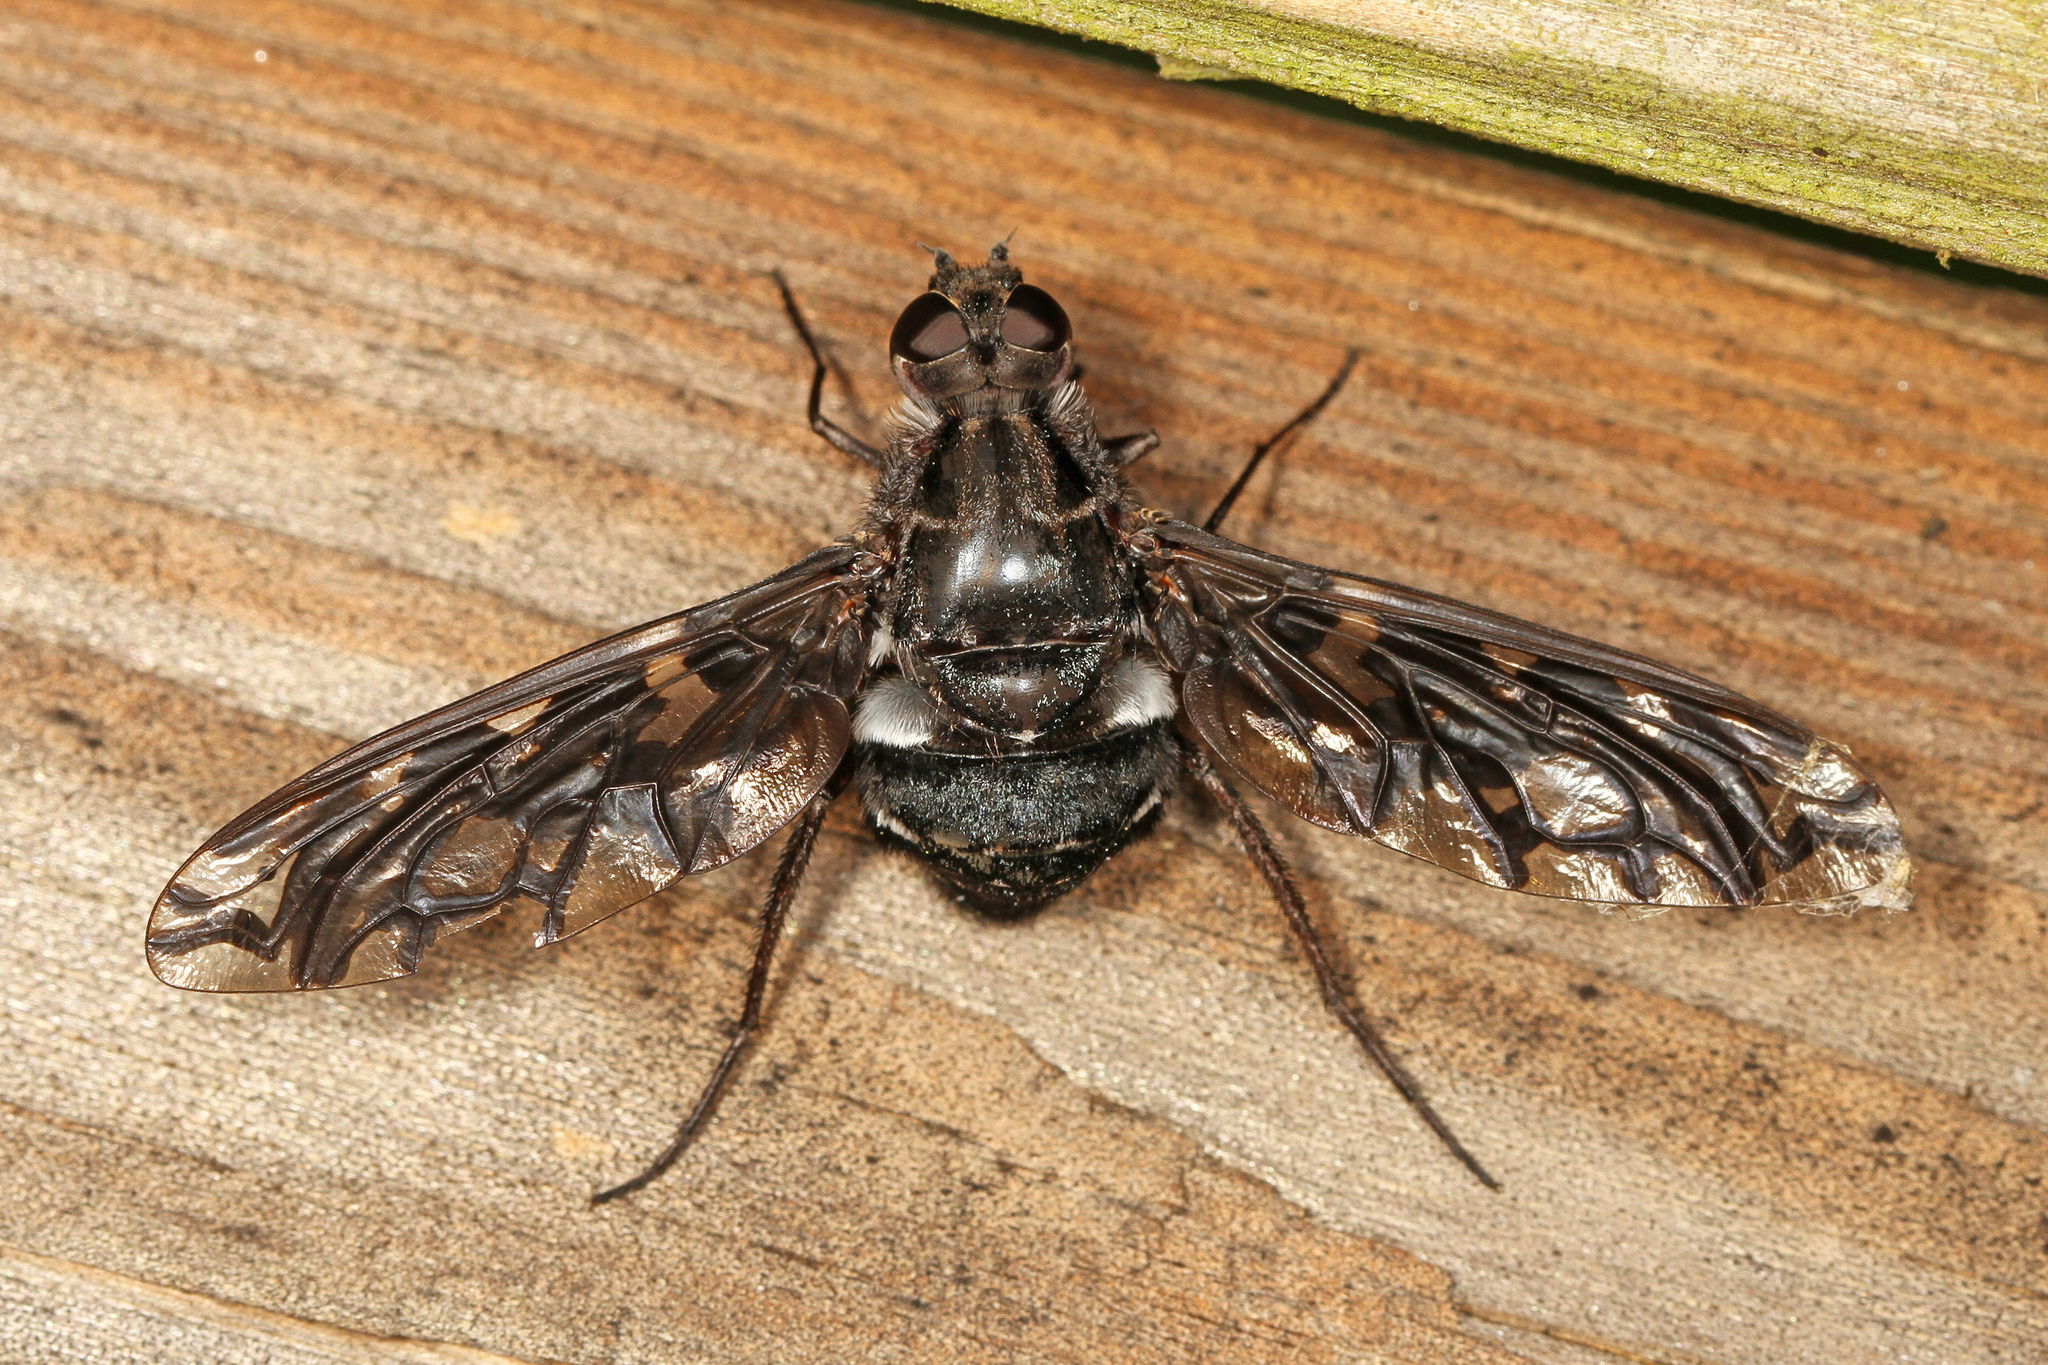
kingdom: Animalia
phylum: Arthropoda
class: Insecta
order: Diptera
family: Bombyliidae
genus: Xenox
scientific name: Xenox tigrinus
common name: Tiger bee fly
